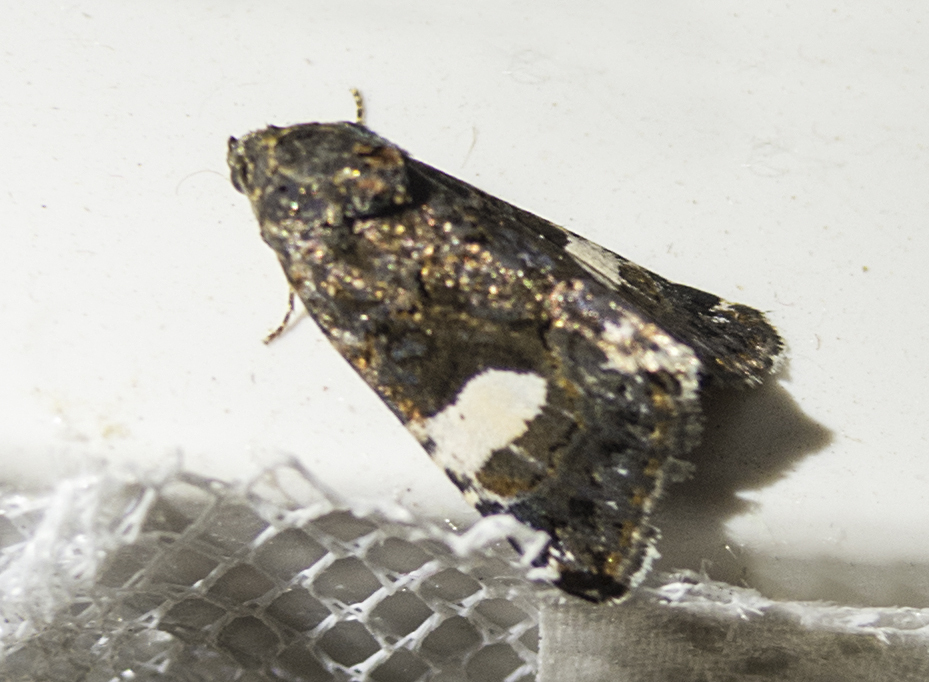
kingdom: Animalia
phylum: Arthropoda
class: Insecta
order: Lepidoptera
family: Erebidae
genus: Tyta
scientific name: Tyta luctuosa
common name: Four-spotted
